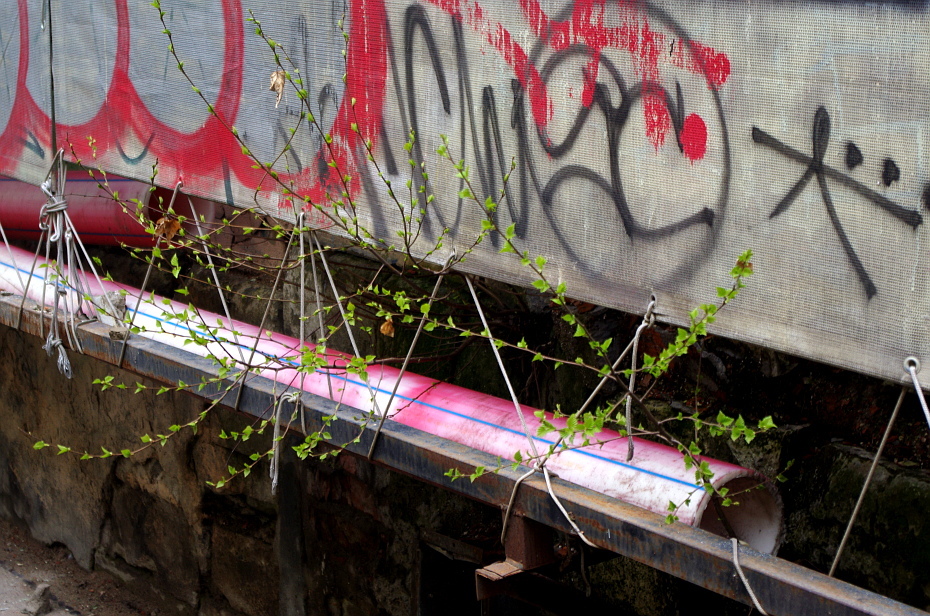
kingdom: Plantae
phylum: Tracheophyta
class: Magnoliopsida
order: Fagales
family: Betulaceae
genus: Betula
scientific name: Betula pubescens
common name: Downy birch
